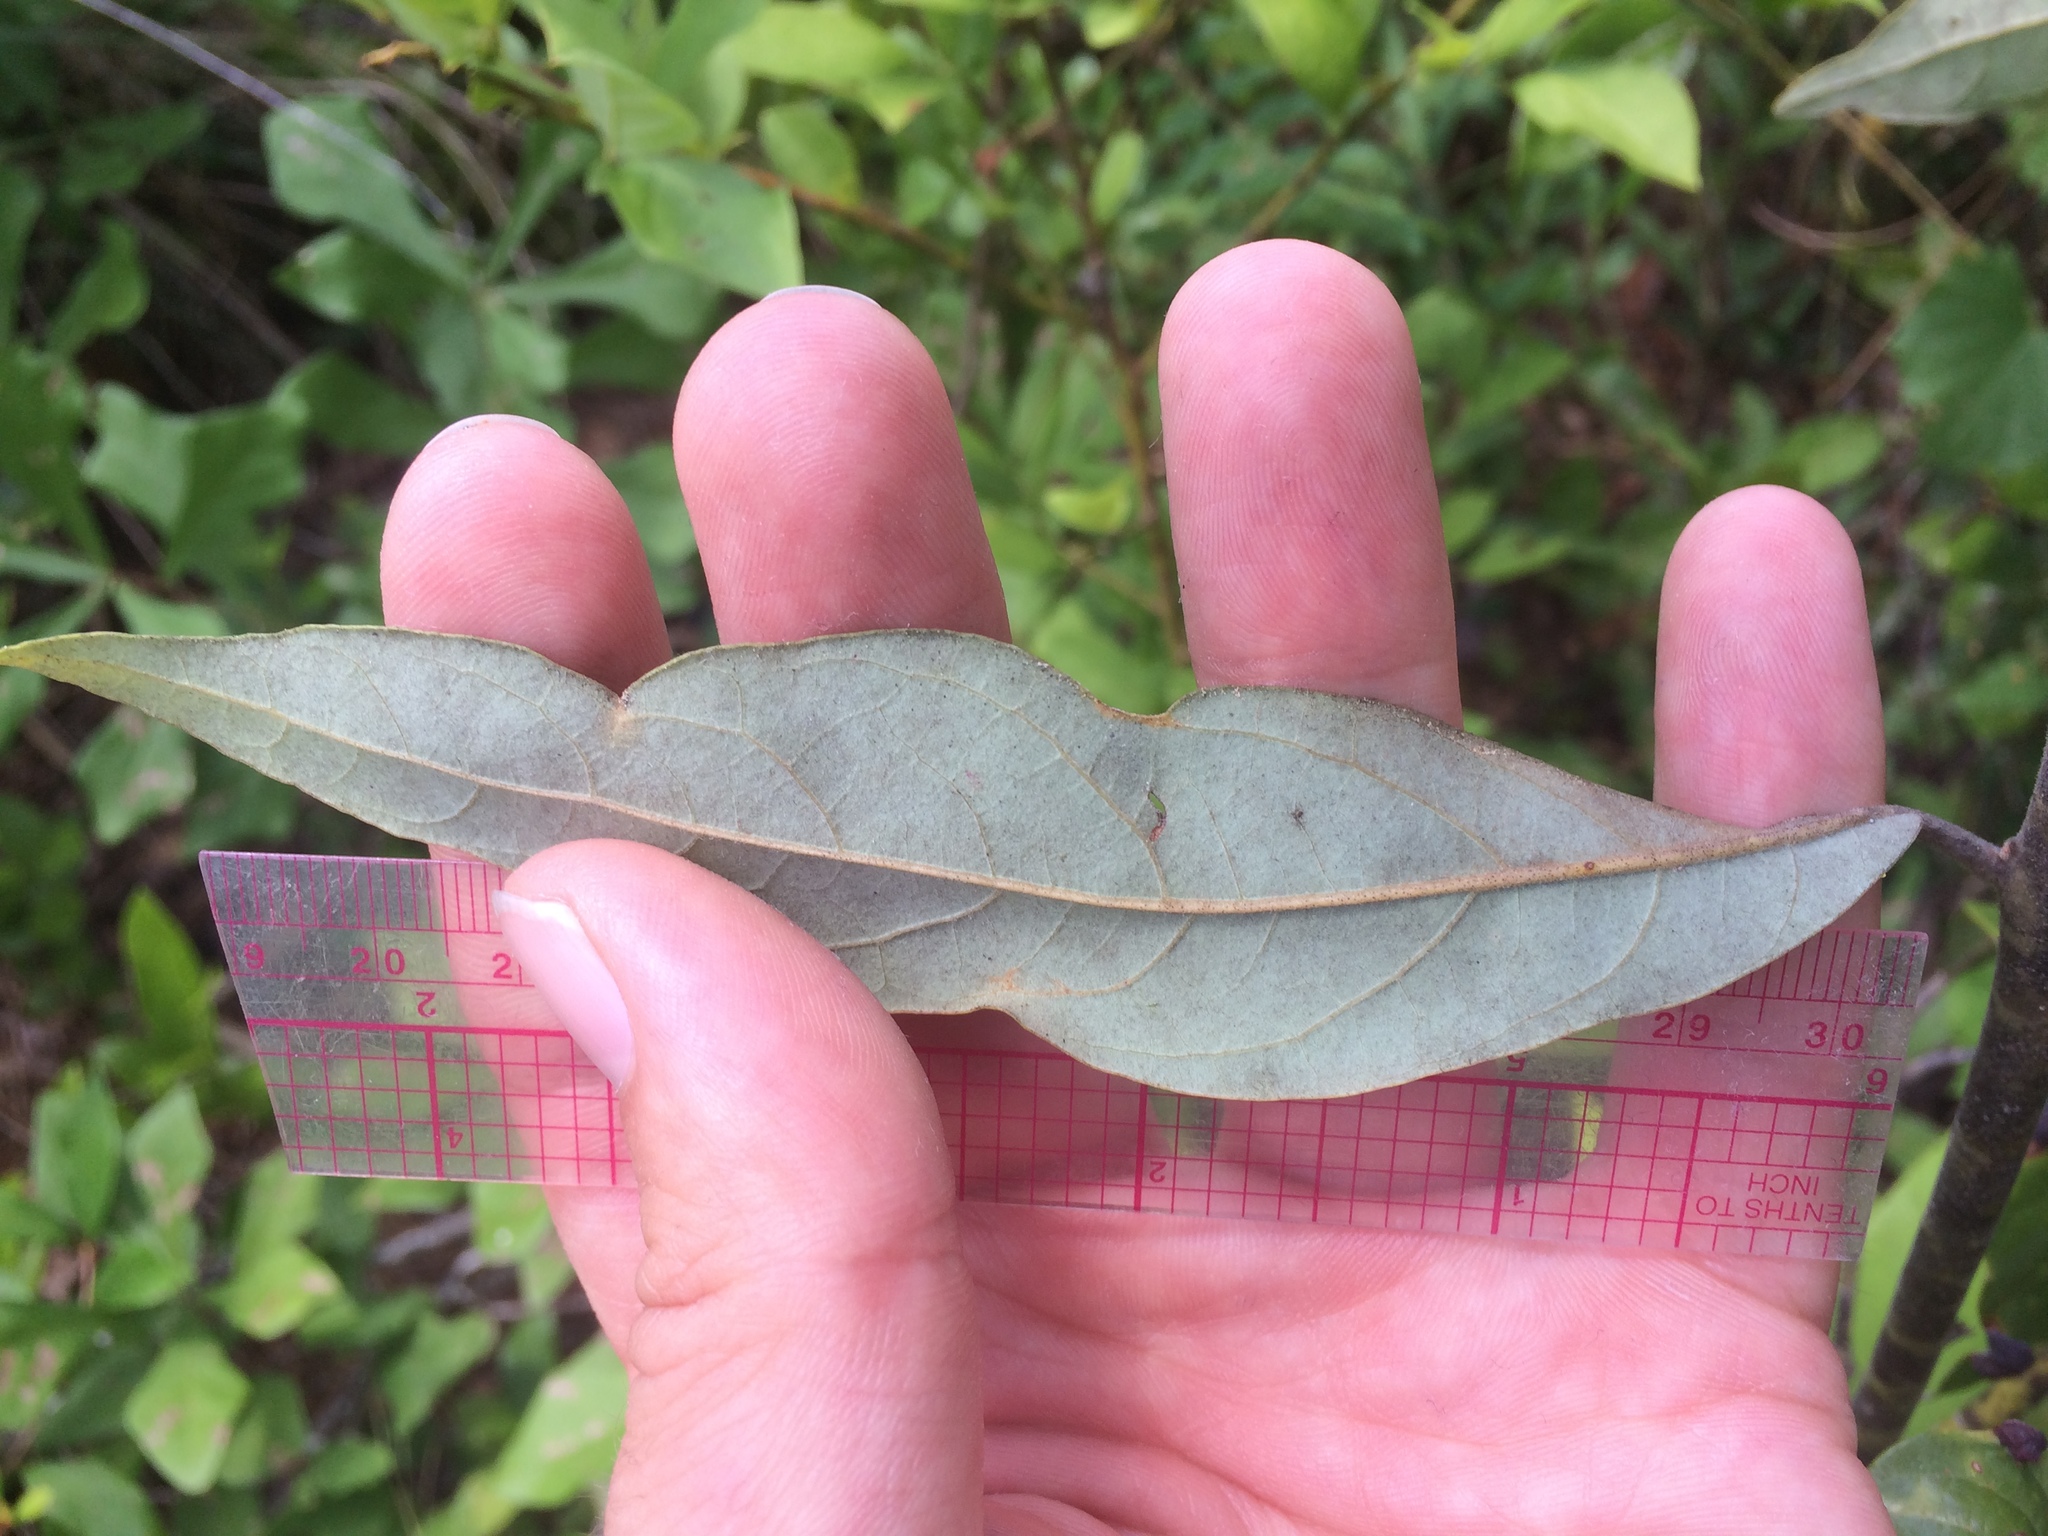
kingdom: Plantae
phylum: Tracheophyta
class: Magnoliopsida
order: Laurales
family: Lauraceae
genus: Persea
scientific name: Persea palustris
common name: Swampbay
